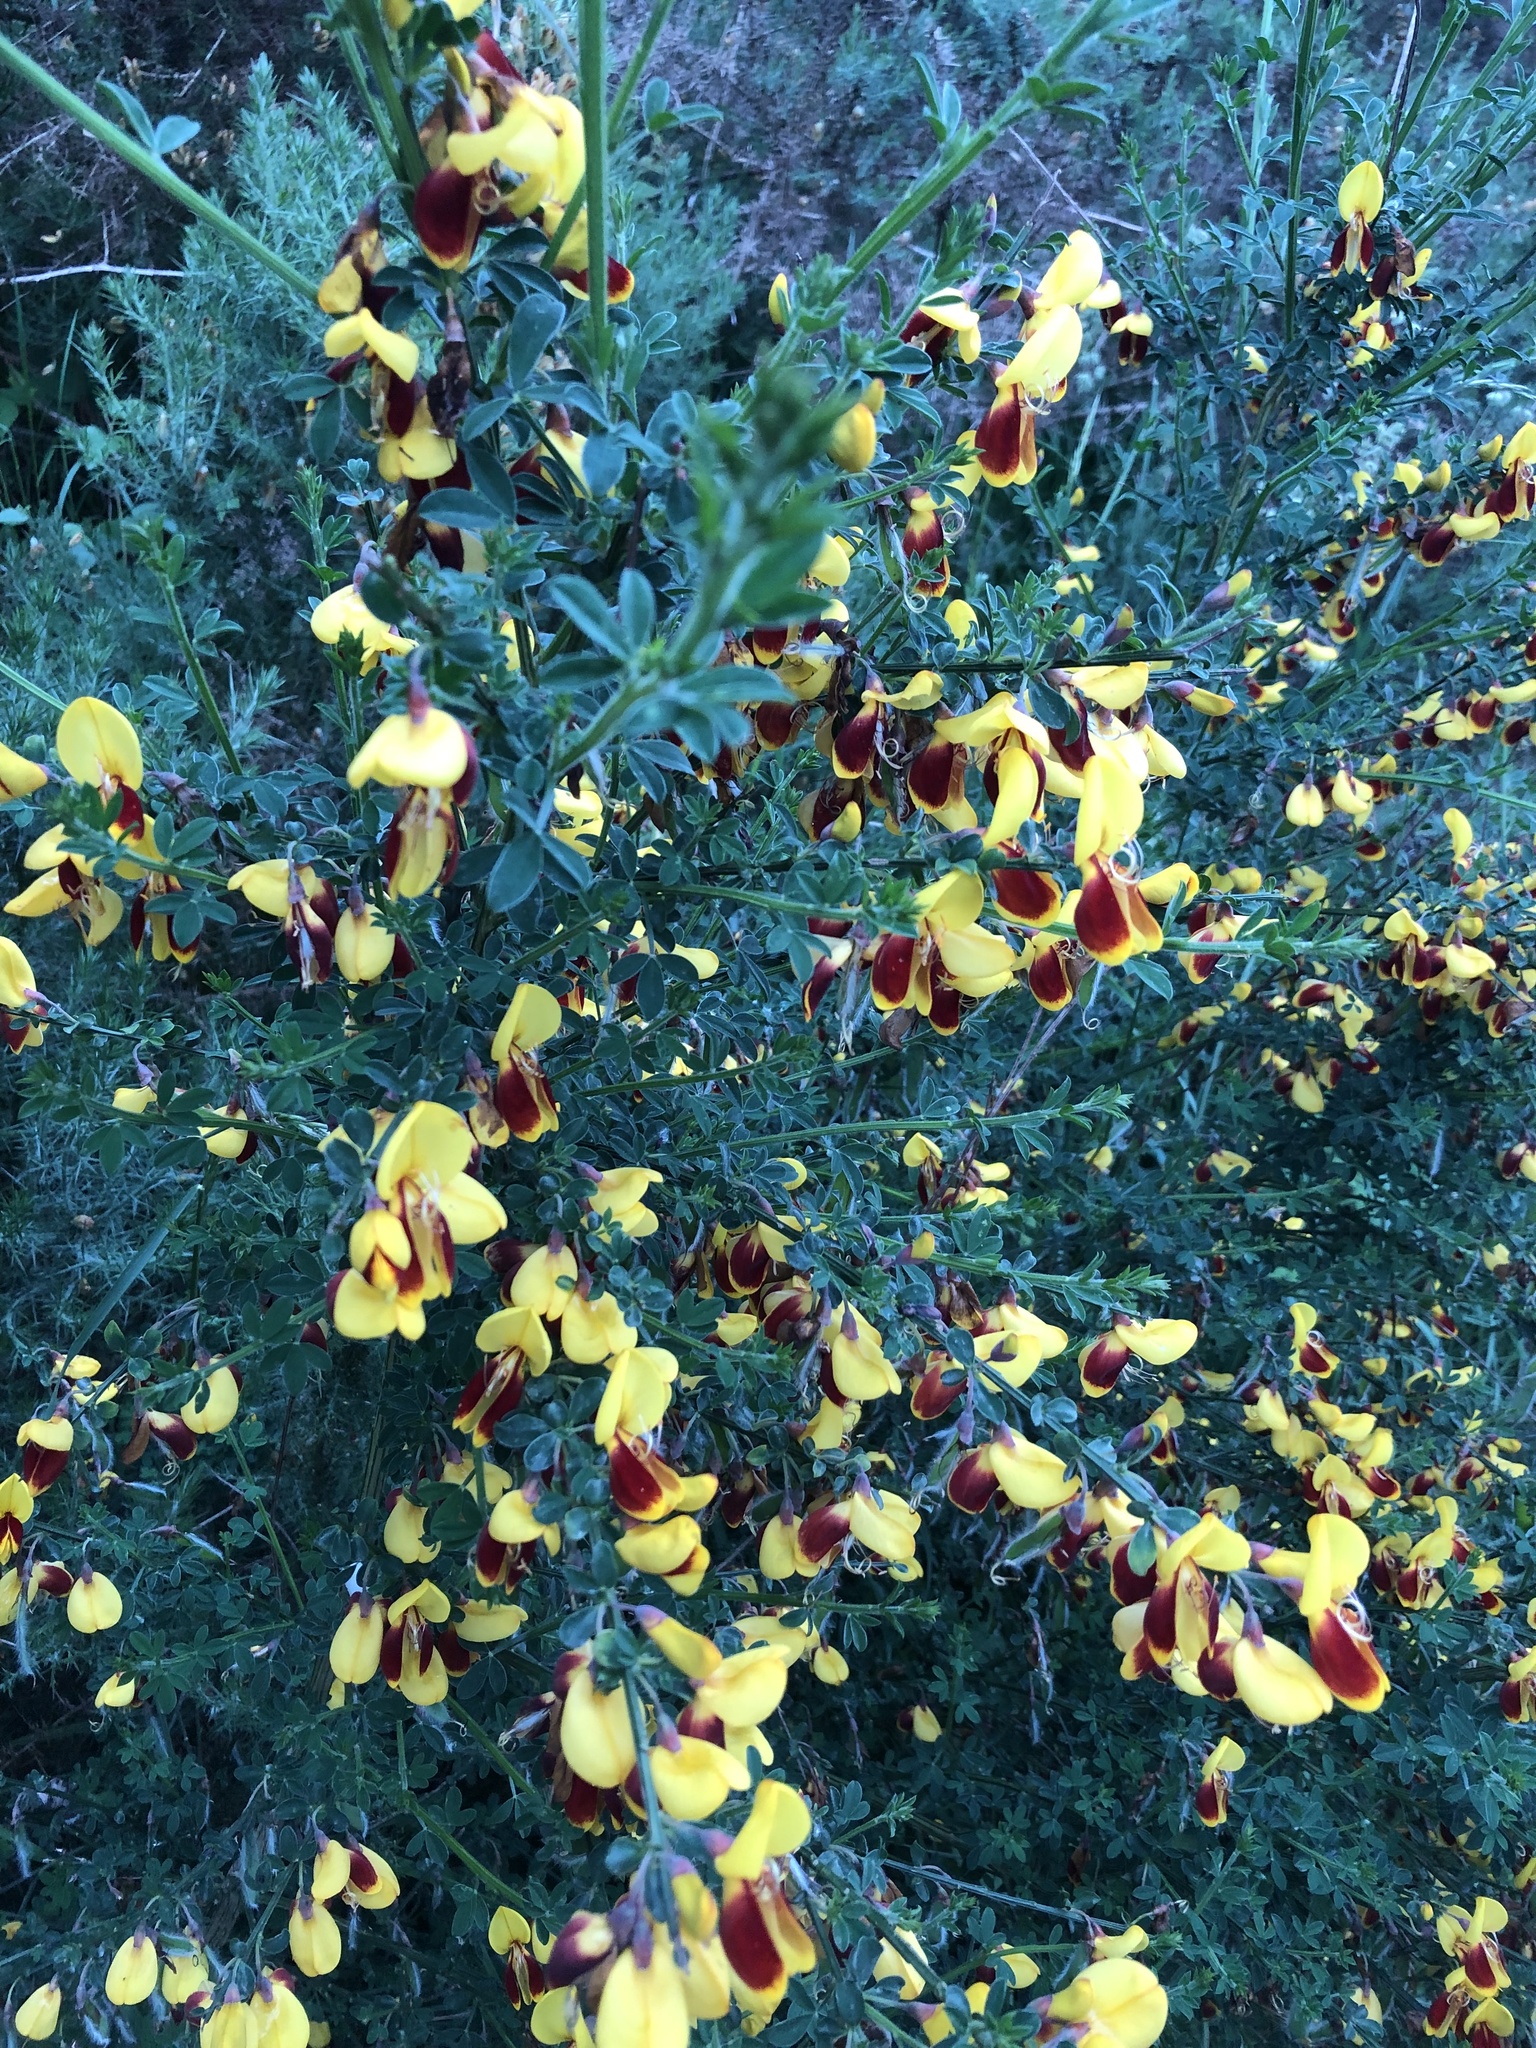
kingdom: Plantae
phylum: Tracheophyta
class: Magnoliopsida
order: Fabales
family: Fabaceae
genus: Cytisus
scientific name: Cytisus scoparius
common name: Scotch broom
